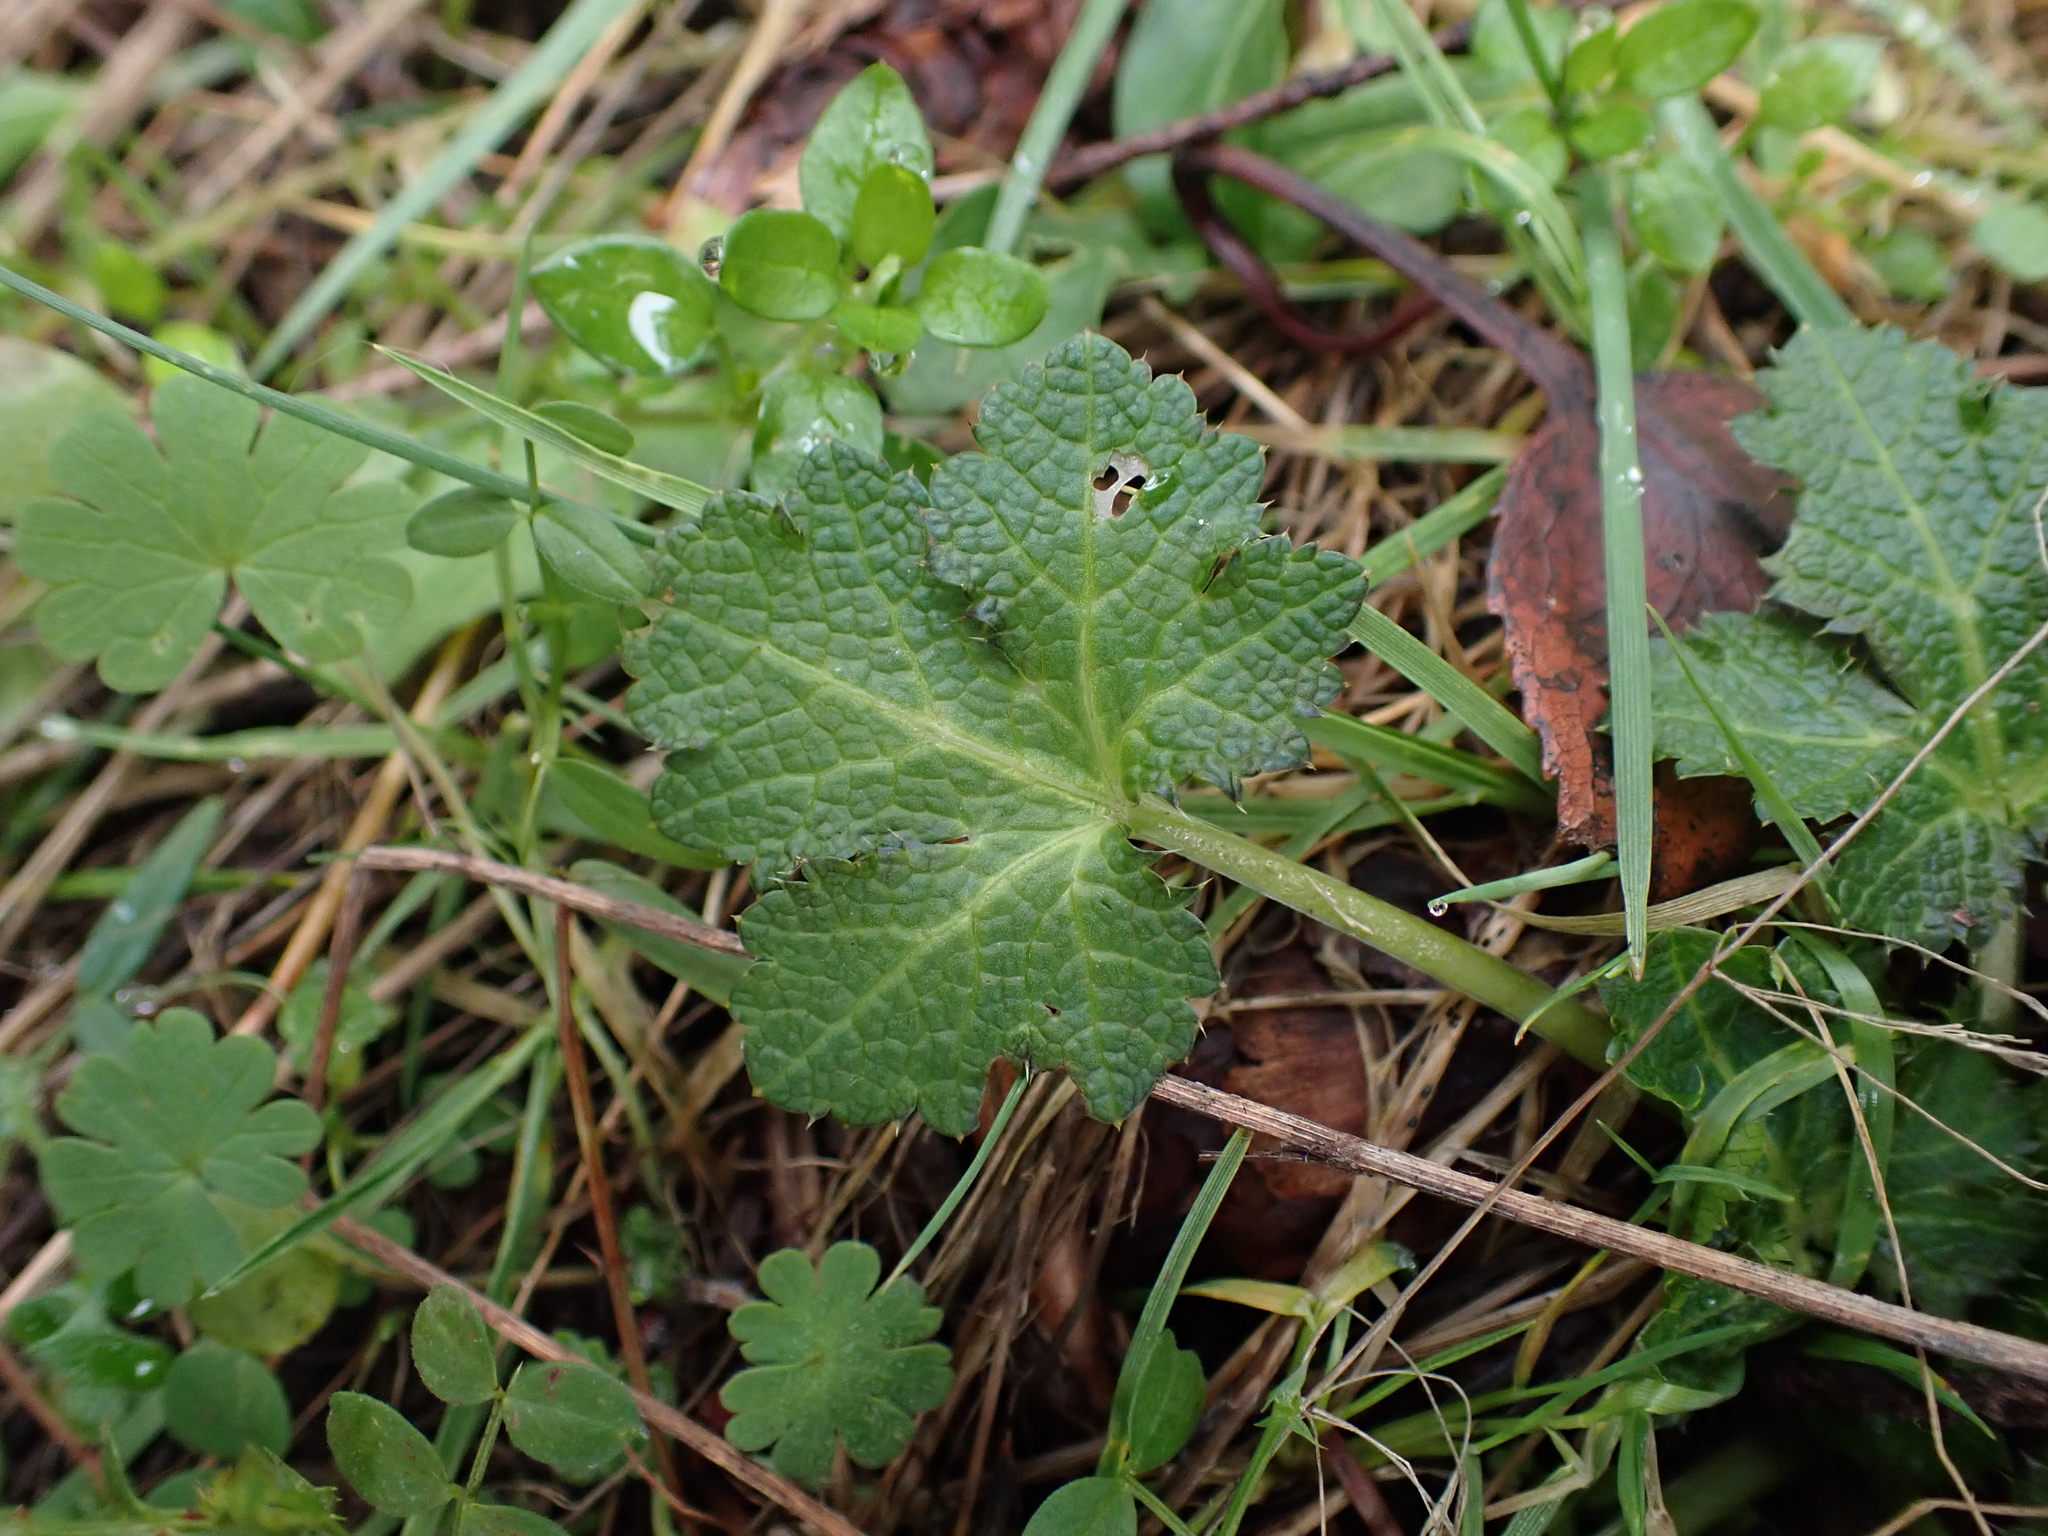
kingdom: Plantae
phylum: Tracheophyta
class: Magnoliopsida
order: Apiales
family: Apiaceae
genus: Sanicula
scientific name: Sanicula crassicaulis
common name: Western snakeroot
